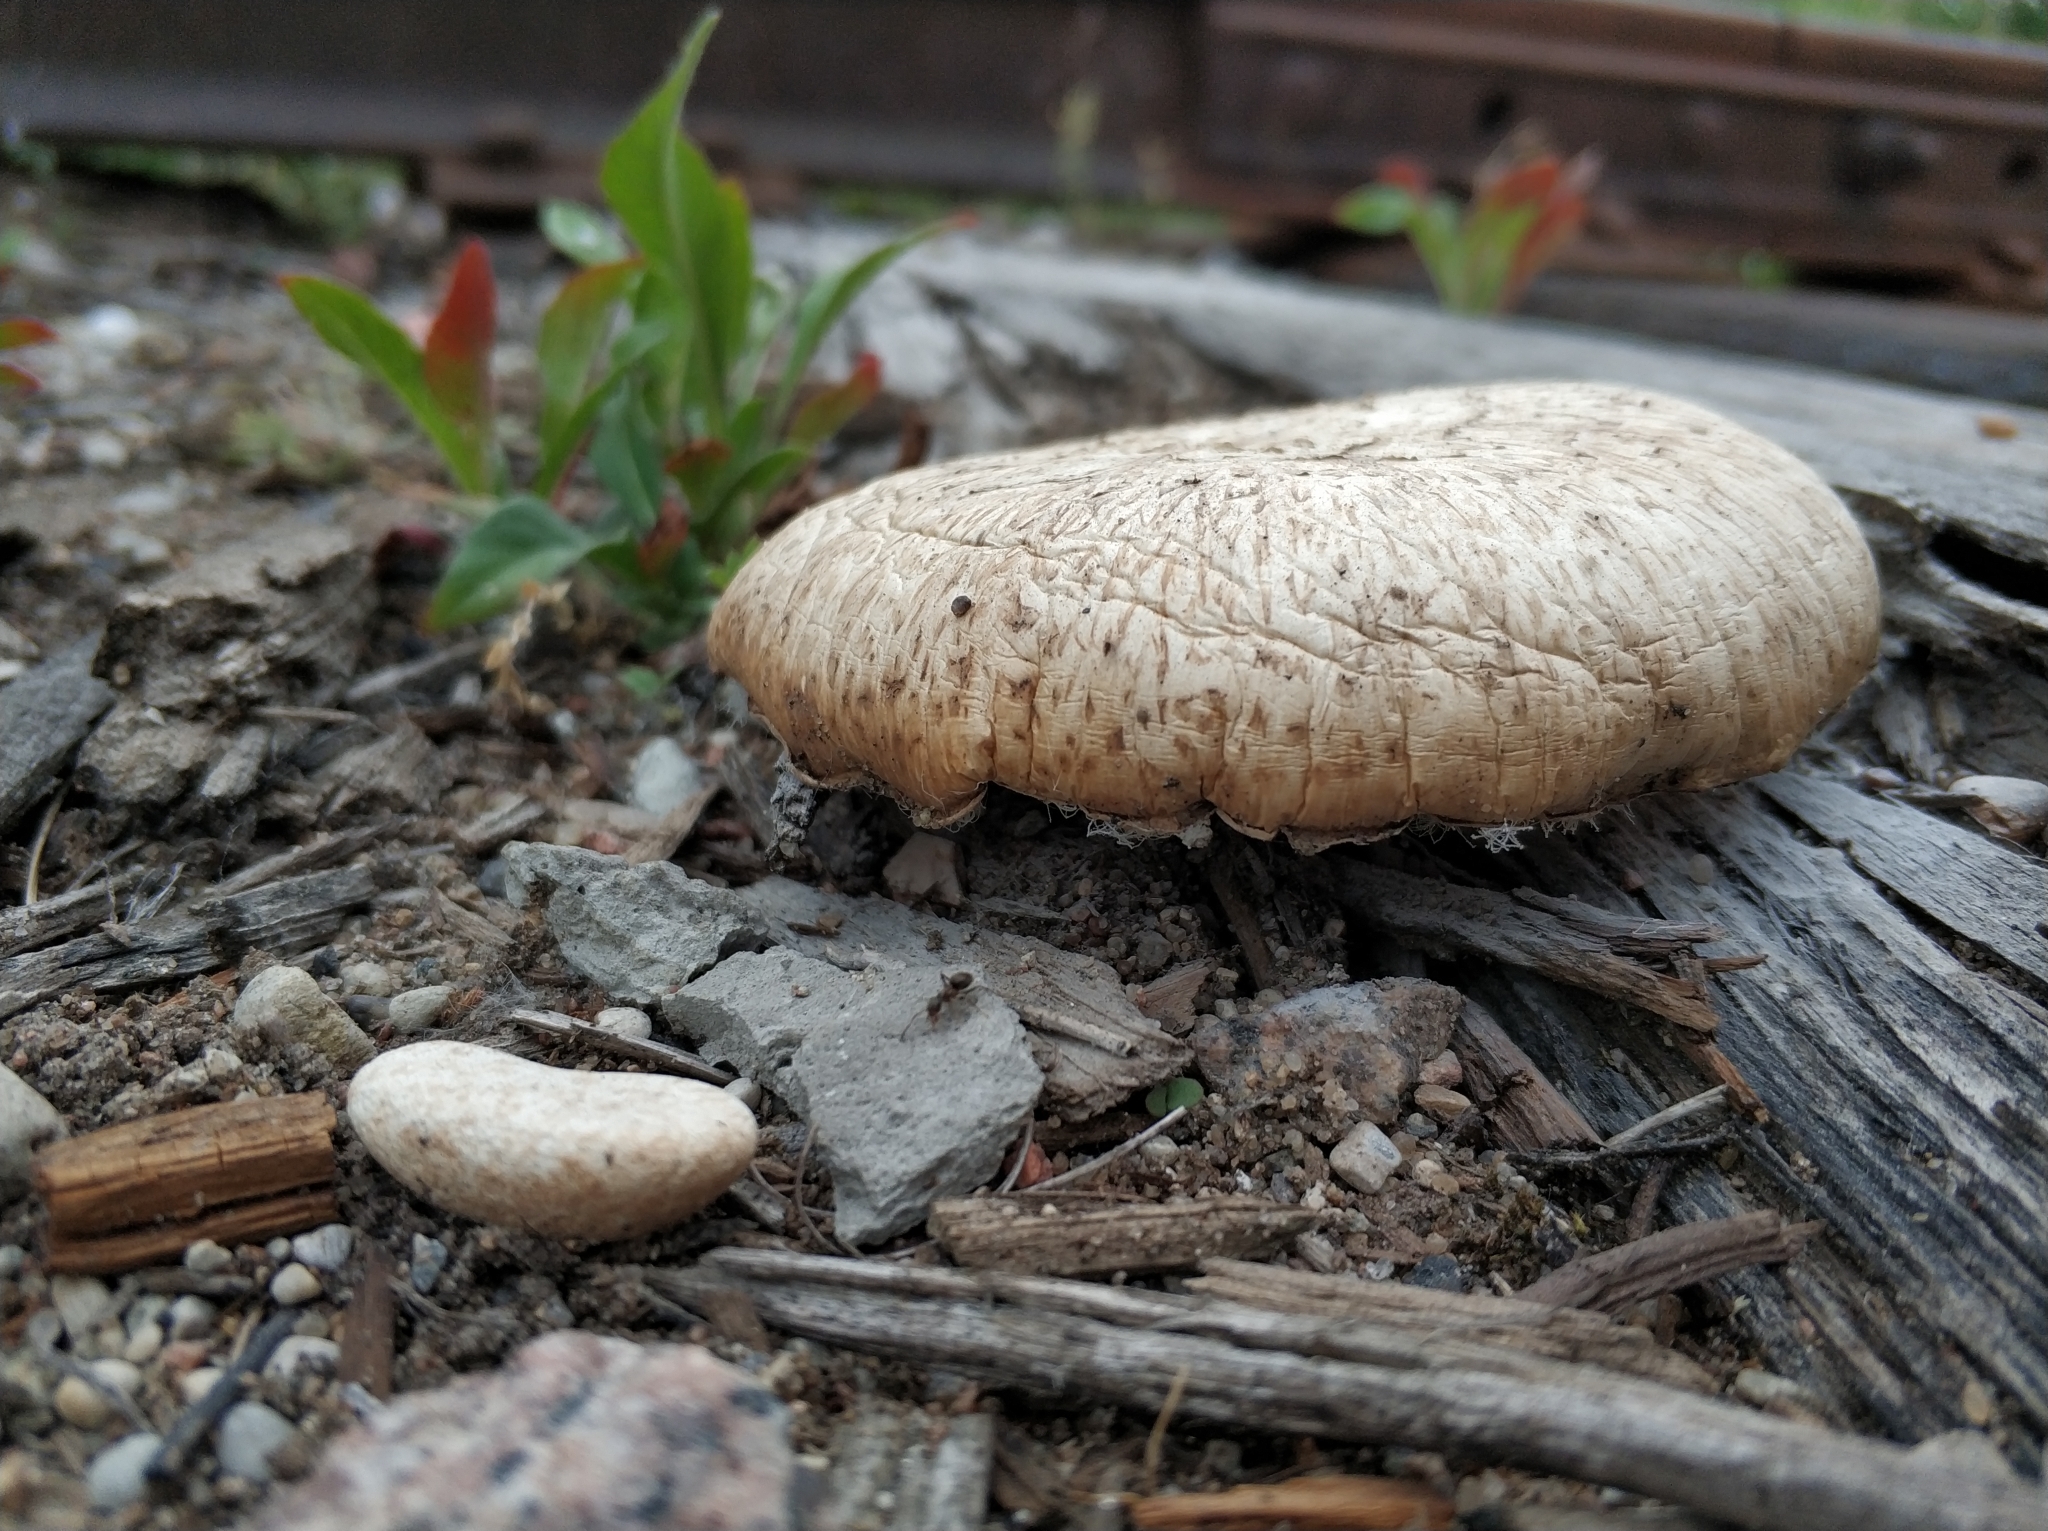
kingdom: Fungi
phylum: Basidiomycota
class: Agaricomycetes
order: Gloeophyllales
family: Gloeophyllaceae
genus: Neolentinus
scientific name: Neolentinus lepideus
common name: Scaly sawgill
